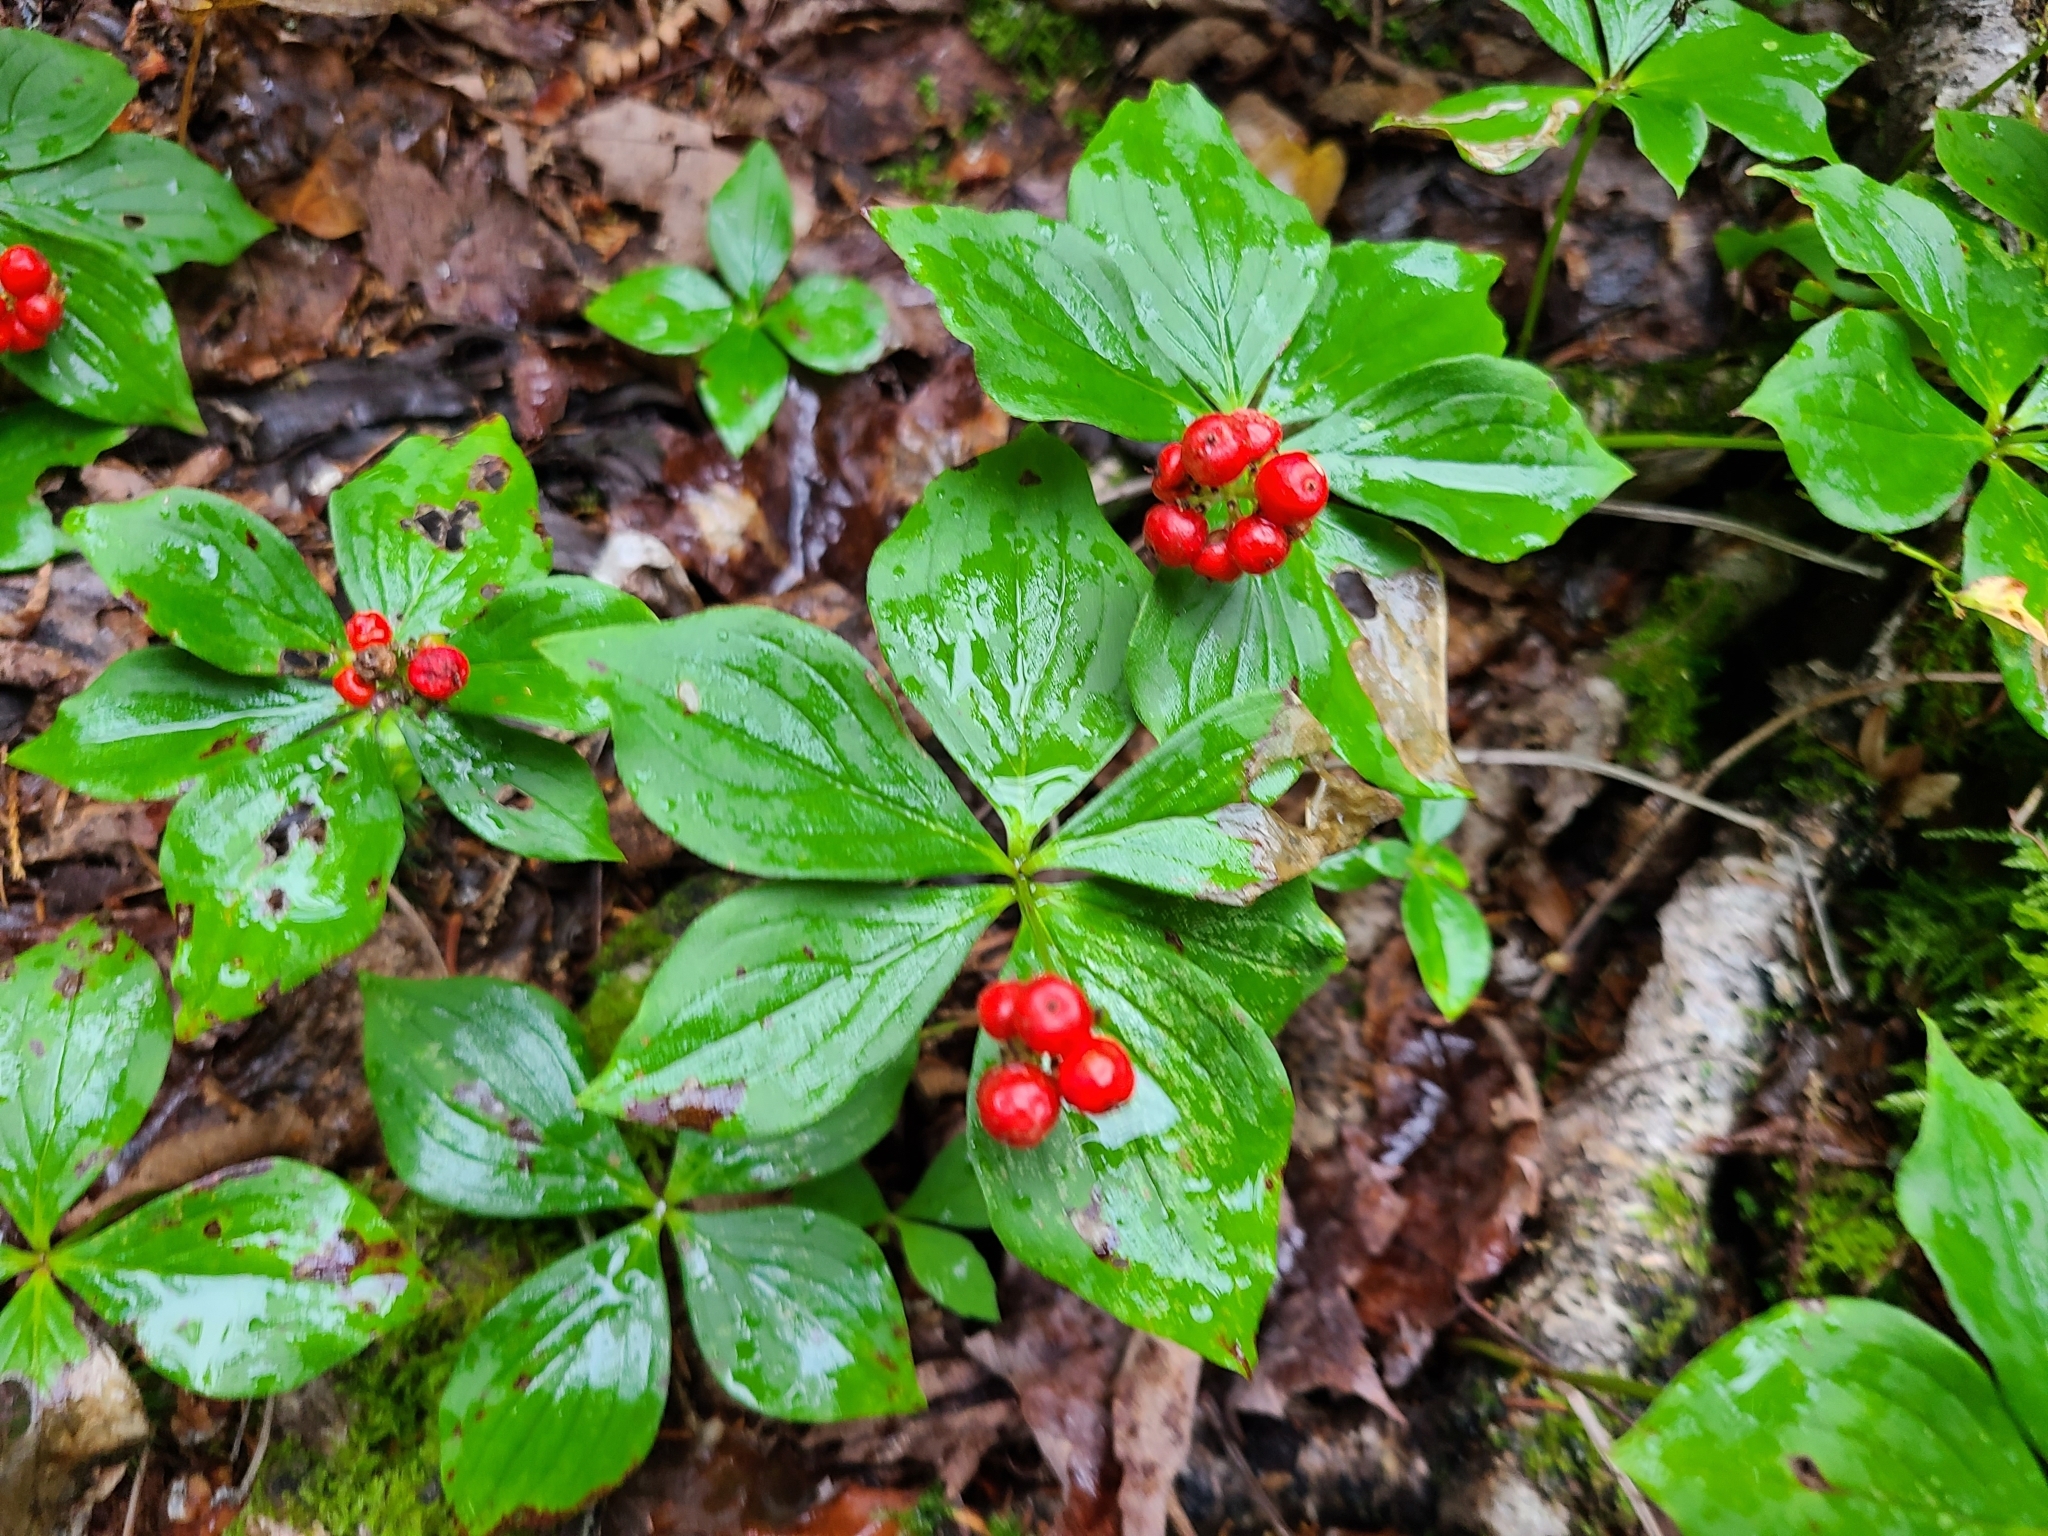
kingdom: Plantae
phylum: Tracheophyta
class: Magnoliopsida
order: Cornales
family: Cornaceae
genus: Cornus
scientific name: Cornus canadensis
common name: Creeping dogwood
